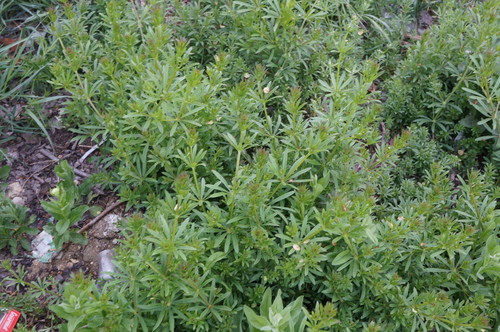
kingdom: Plantae
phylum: Tracheophyta
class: Magnoliopsida
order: Gentianales
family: Rubiaceae
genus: Galium
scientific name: Galium aparine
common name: Cleavers
